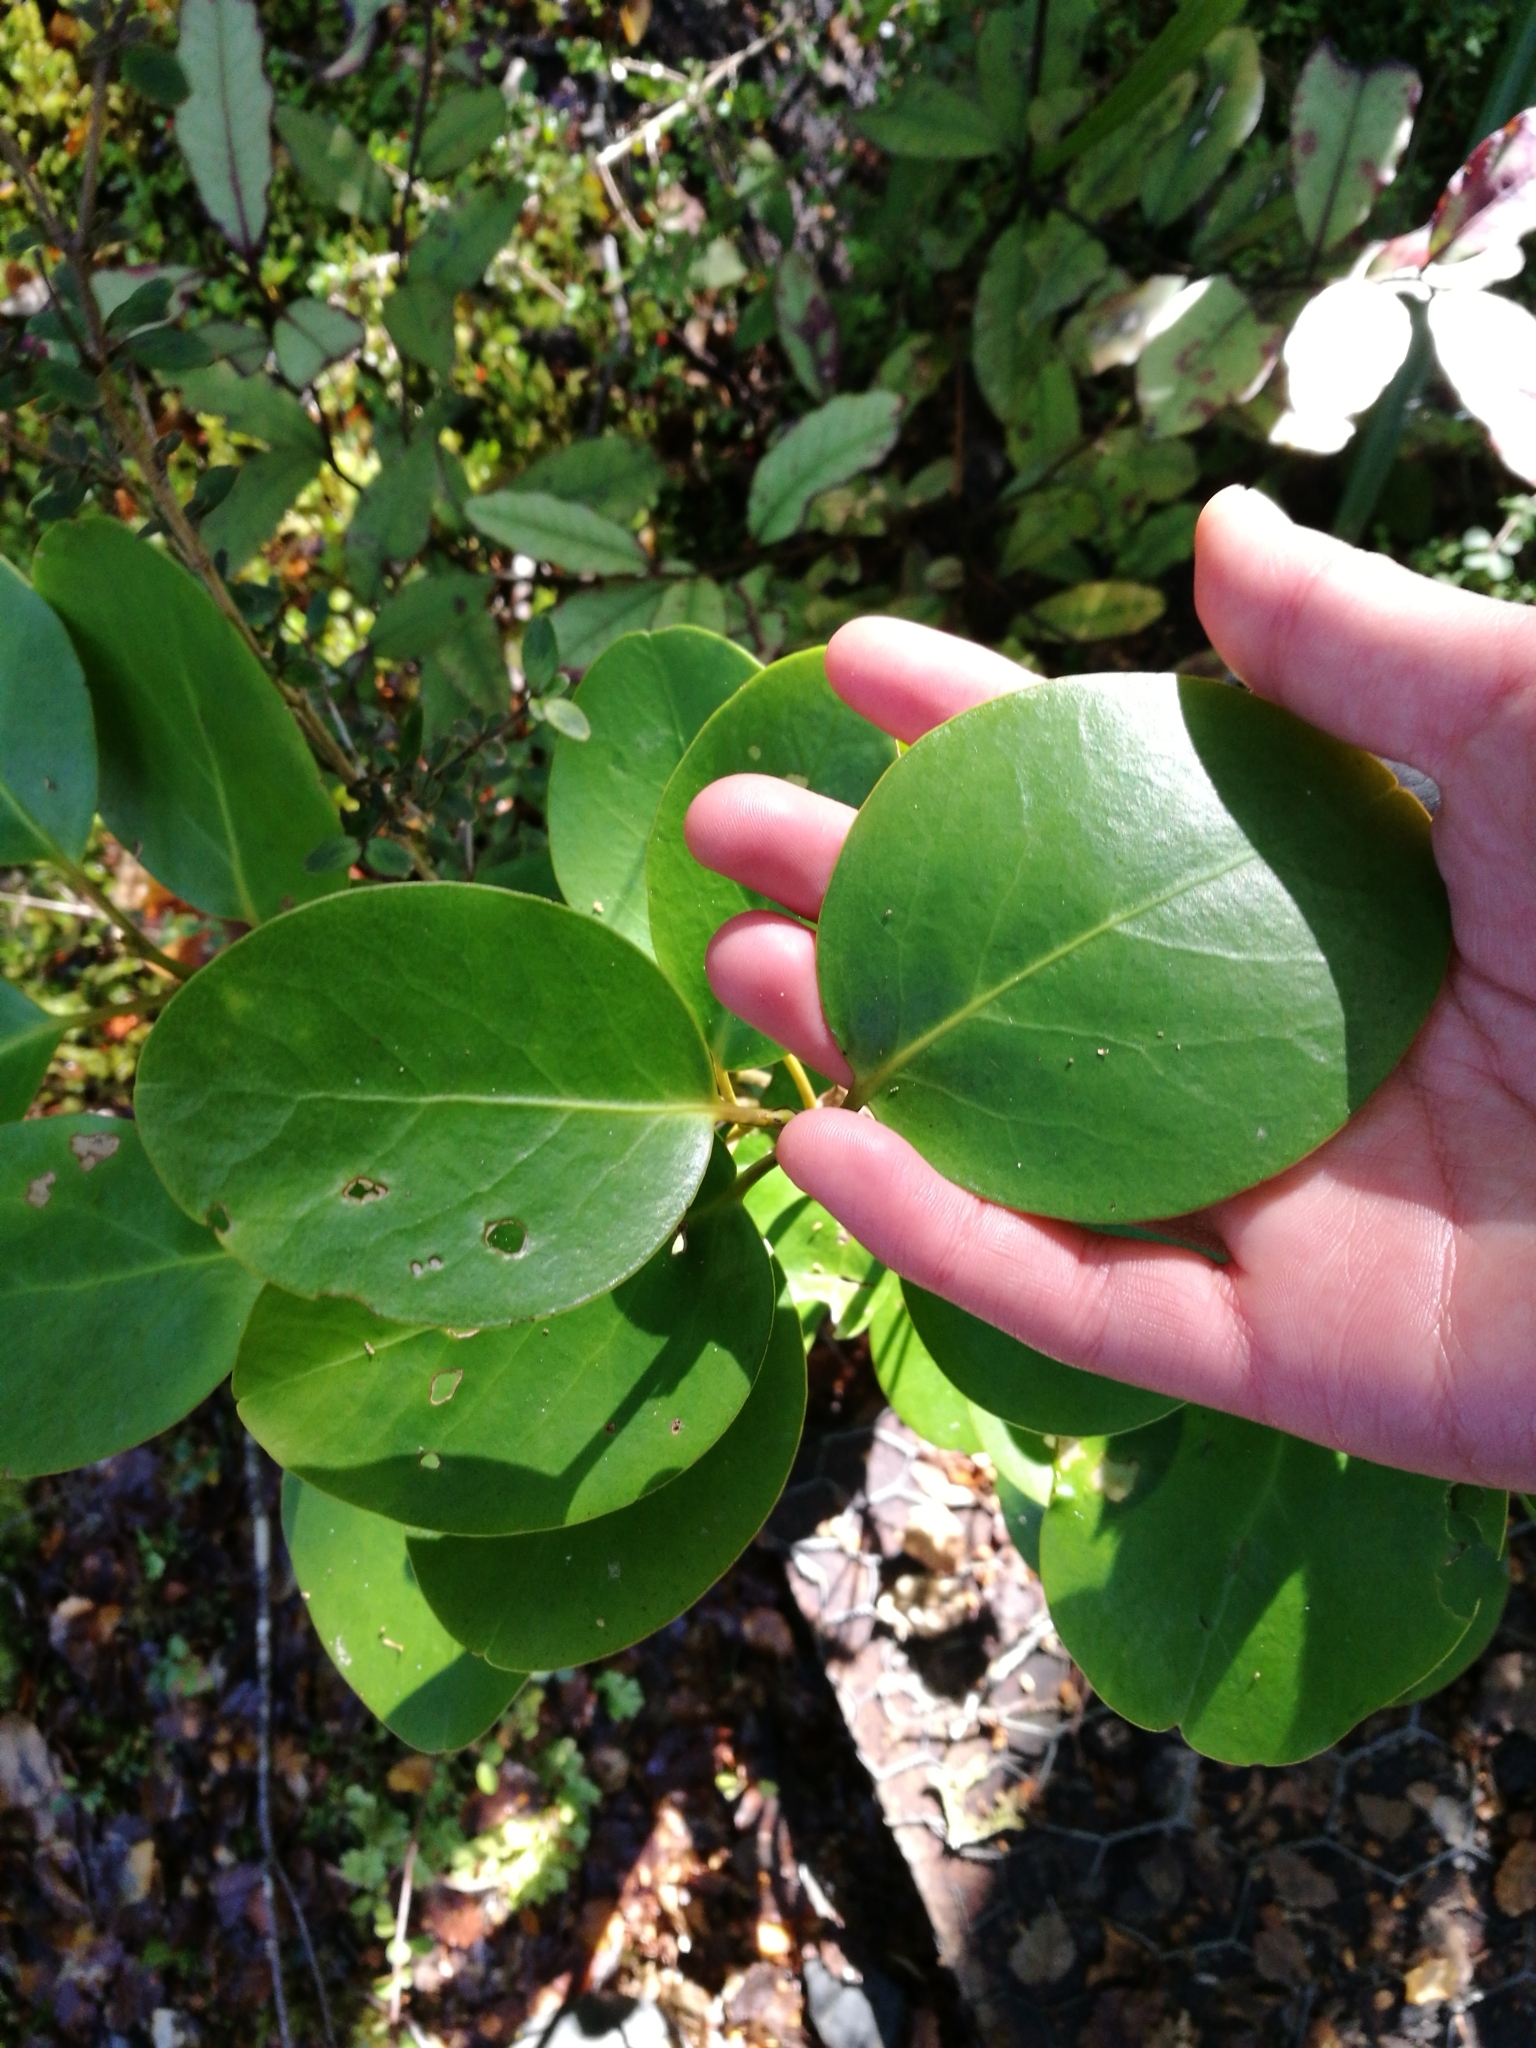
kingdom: Plantae
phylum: Tracheophyta
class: Magnoliopsida
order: Apiales
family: Griseliniaceae
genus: Griselinia
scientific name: Griselinia littoralis
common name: New zealand broadleaf
